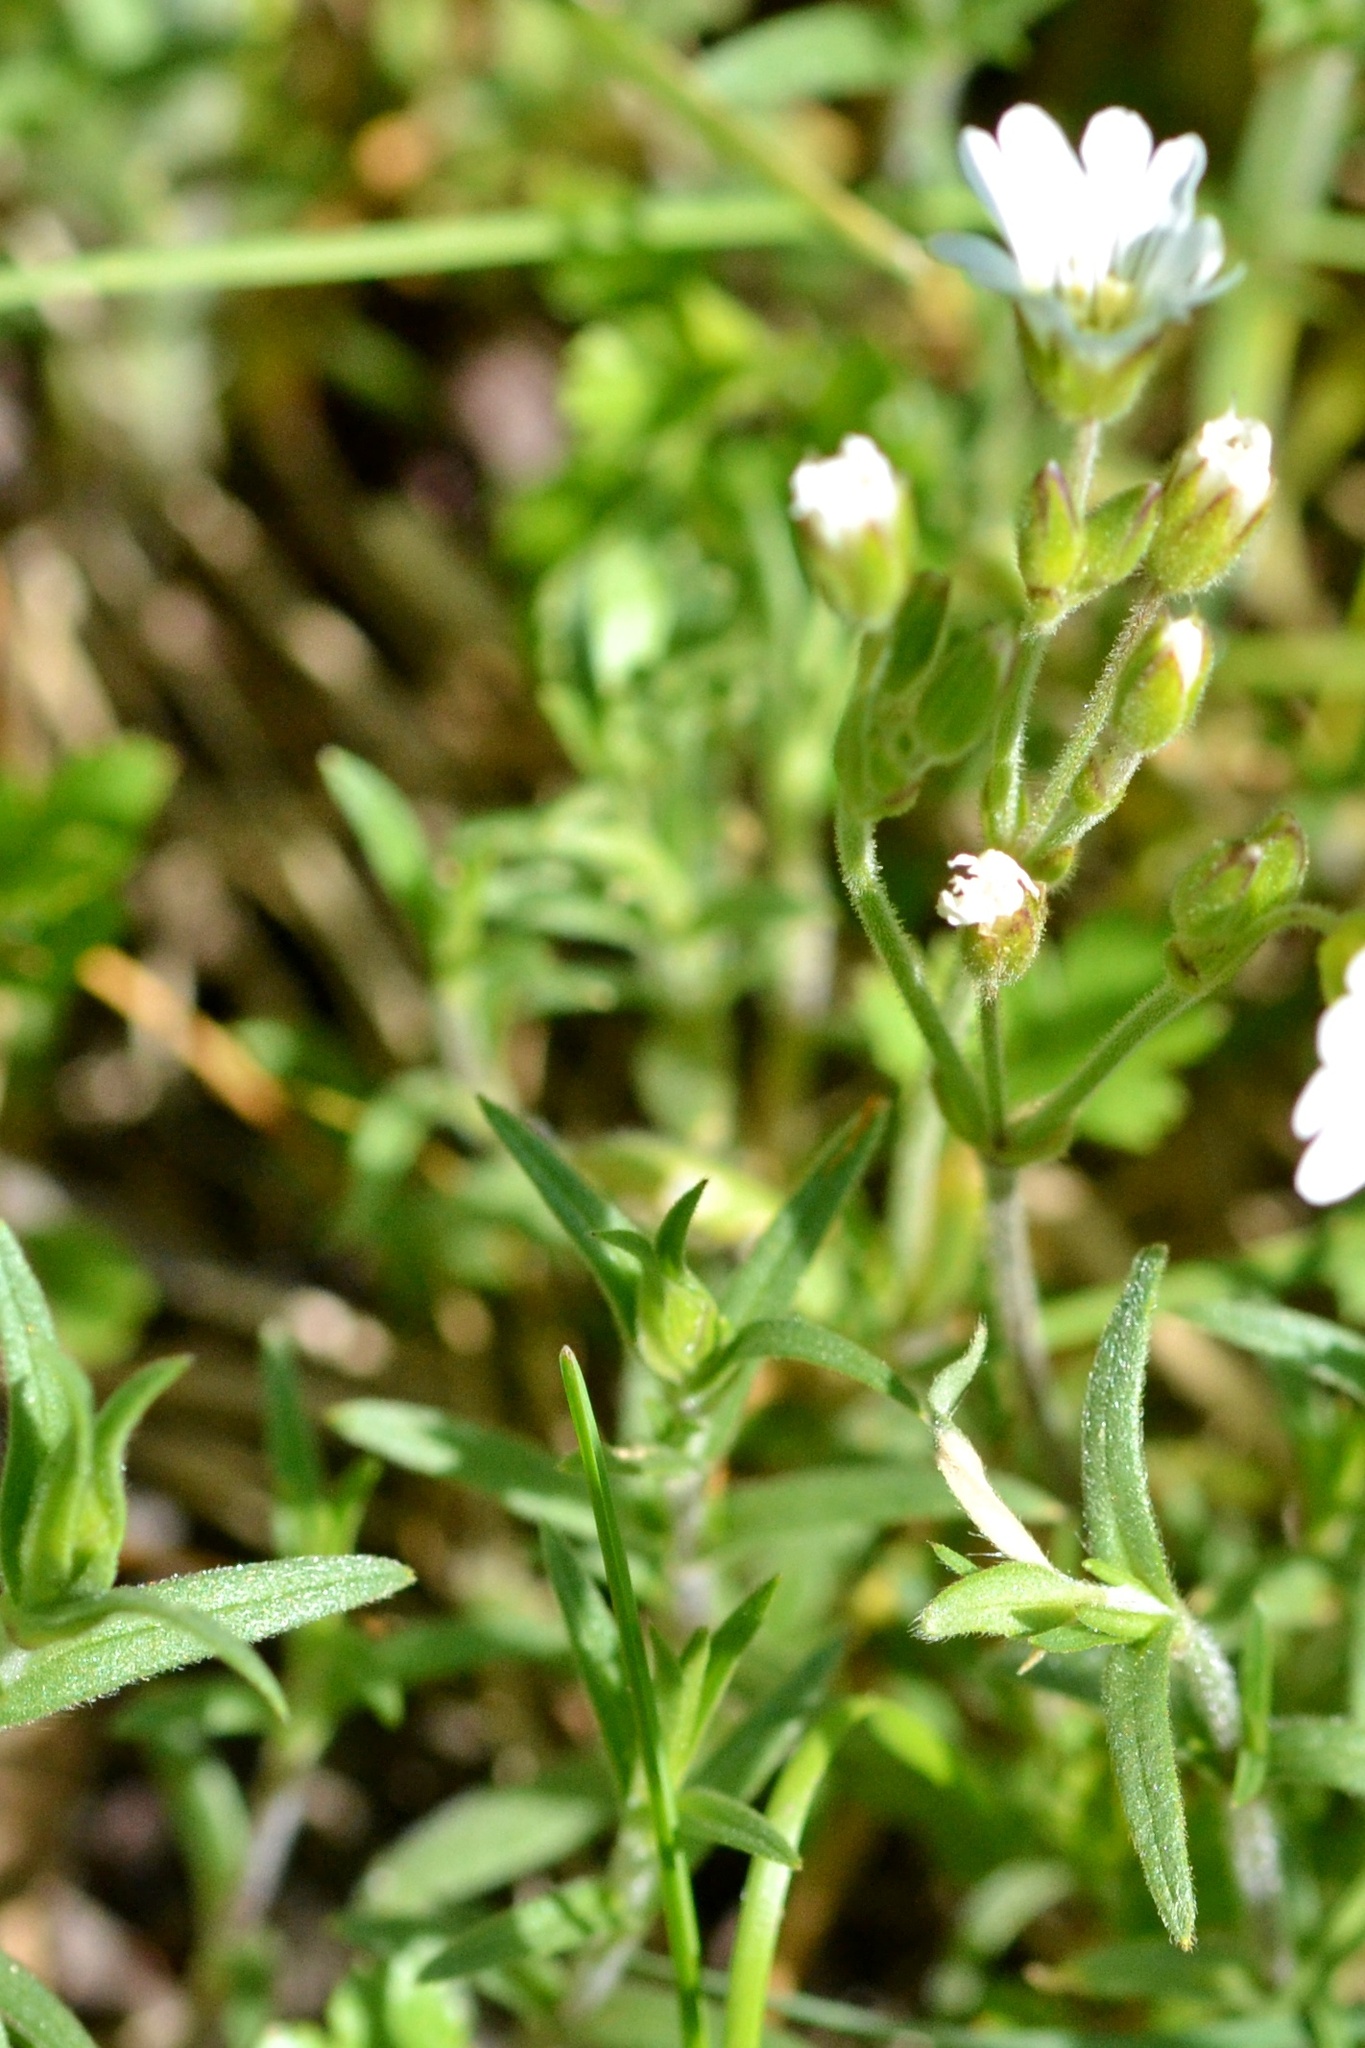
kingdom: Plantae
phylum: Tracheophyta
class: Magnoliopsida
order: Caryophyllales
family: Caryophyllaceae
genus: Cerastium
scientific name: Cerastium arvense
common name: Field mouse-ear
